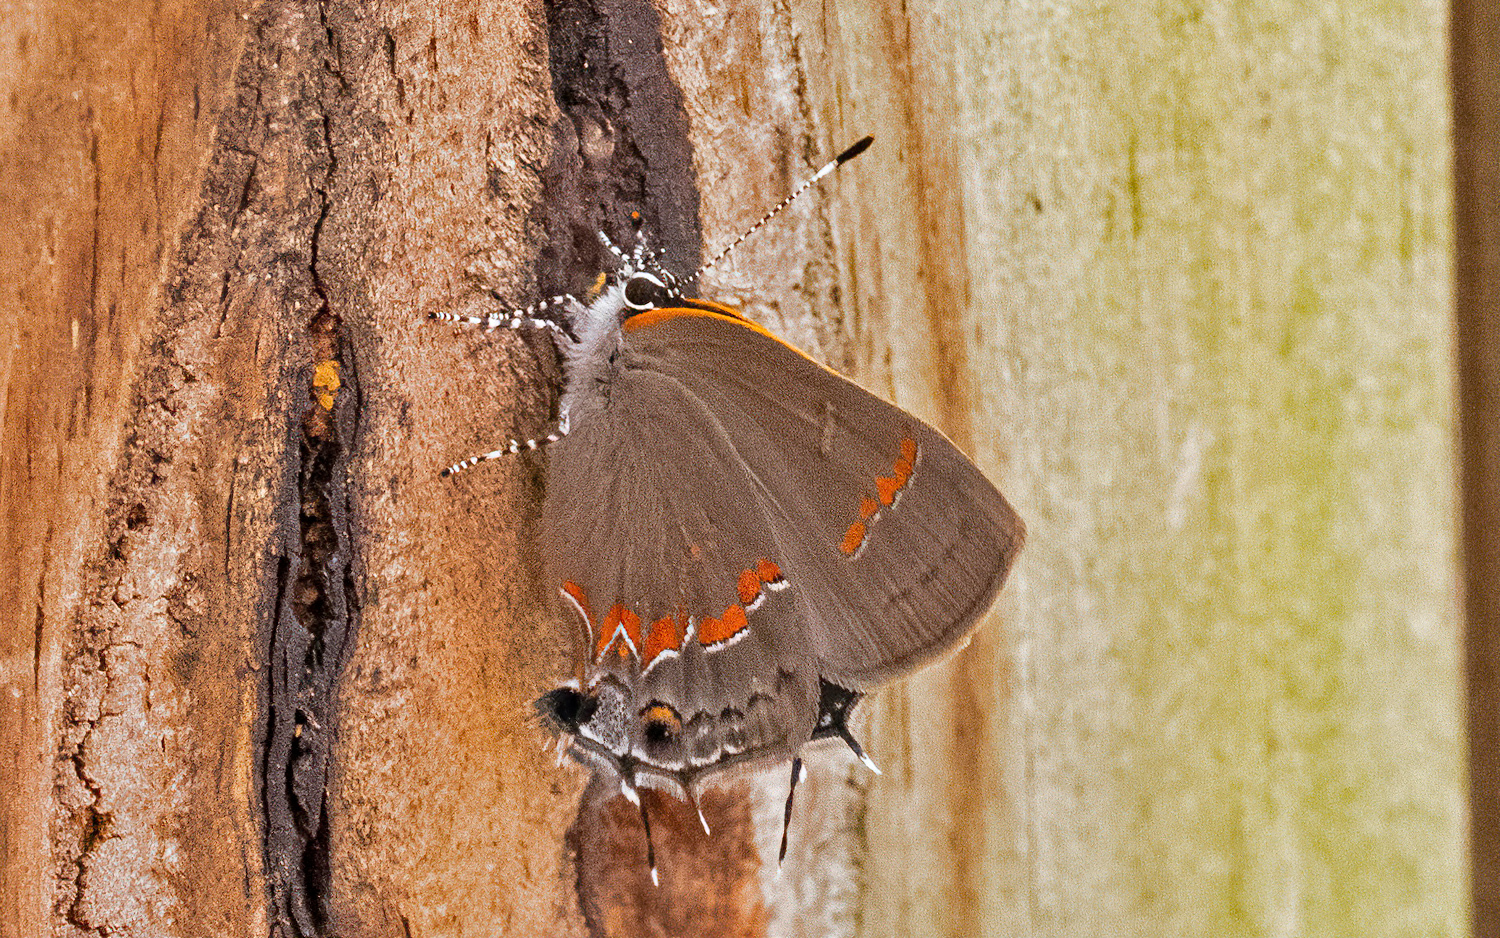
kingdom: Animalia
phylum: Arthropoda
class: Insecta
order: Lepidoptera
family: Lycaenidae
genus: Calycopis
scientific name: Calycopis cecrops
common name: Red-banded hairstreak
